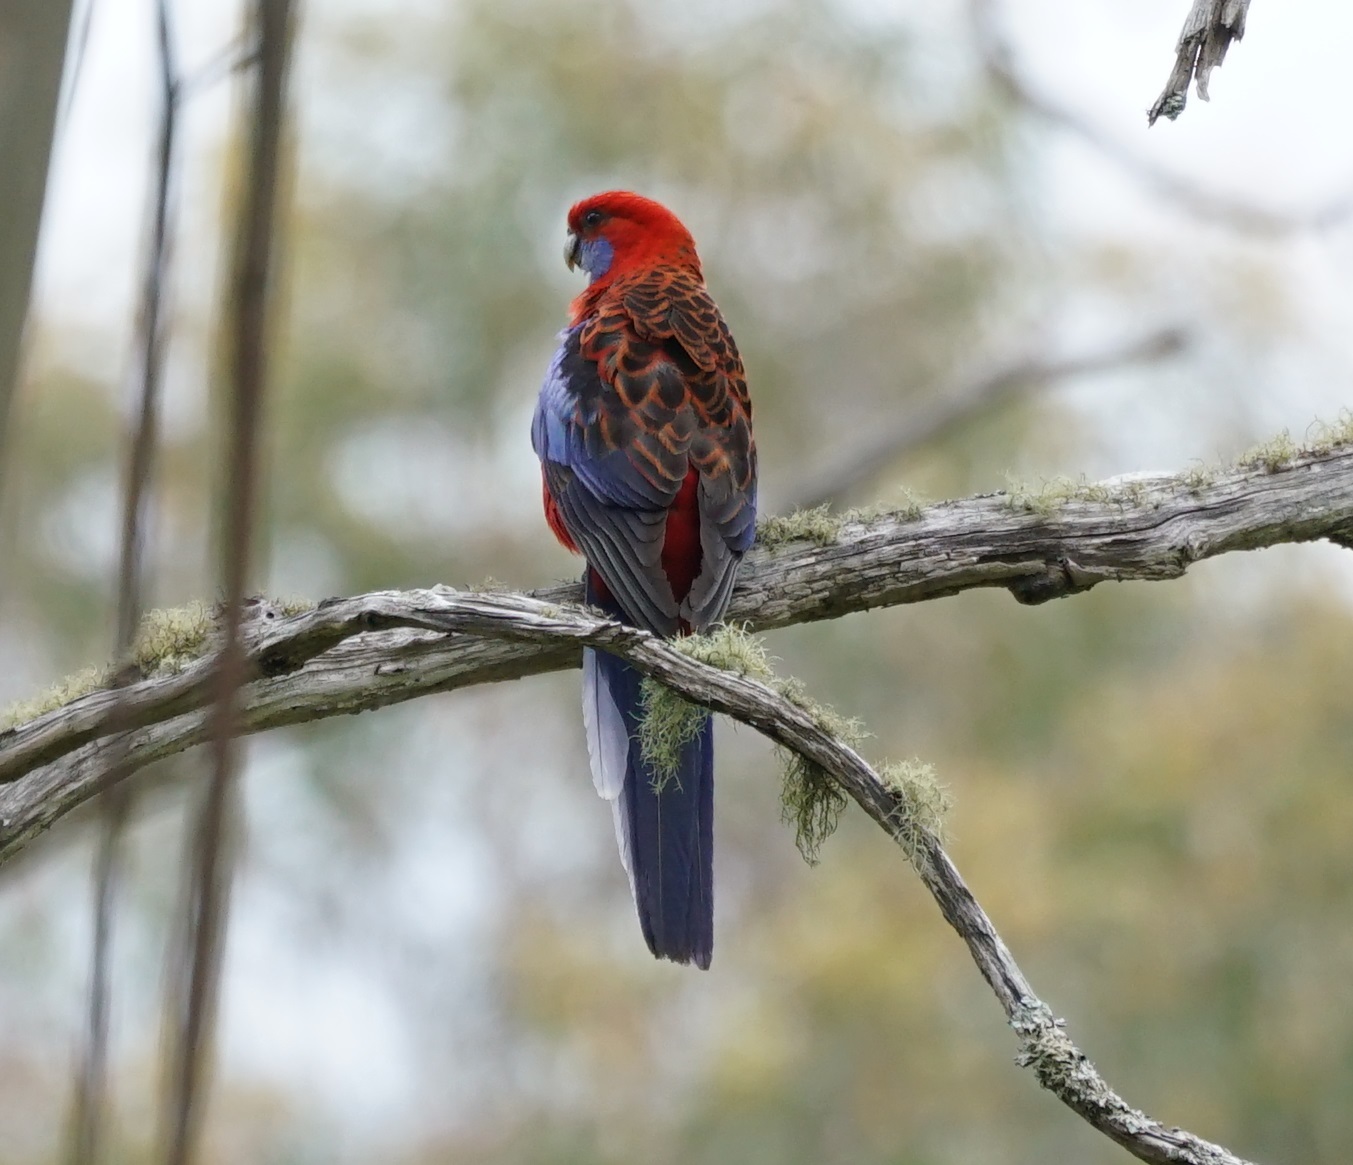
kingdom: Animalia
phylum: Chordata
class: Aves
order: Psittaciformes
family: Psittacidae
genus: Platycercus
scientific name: Platycercus elegans
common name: Crimson rosella
